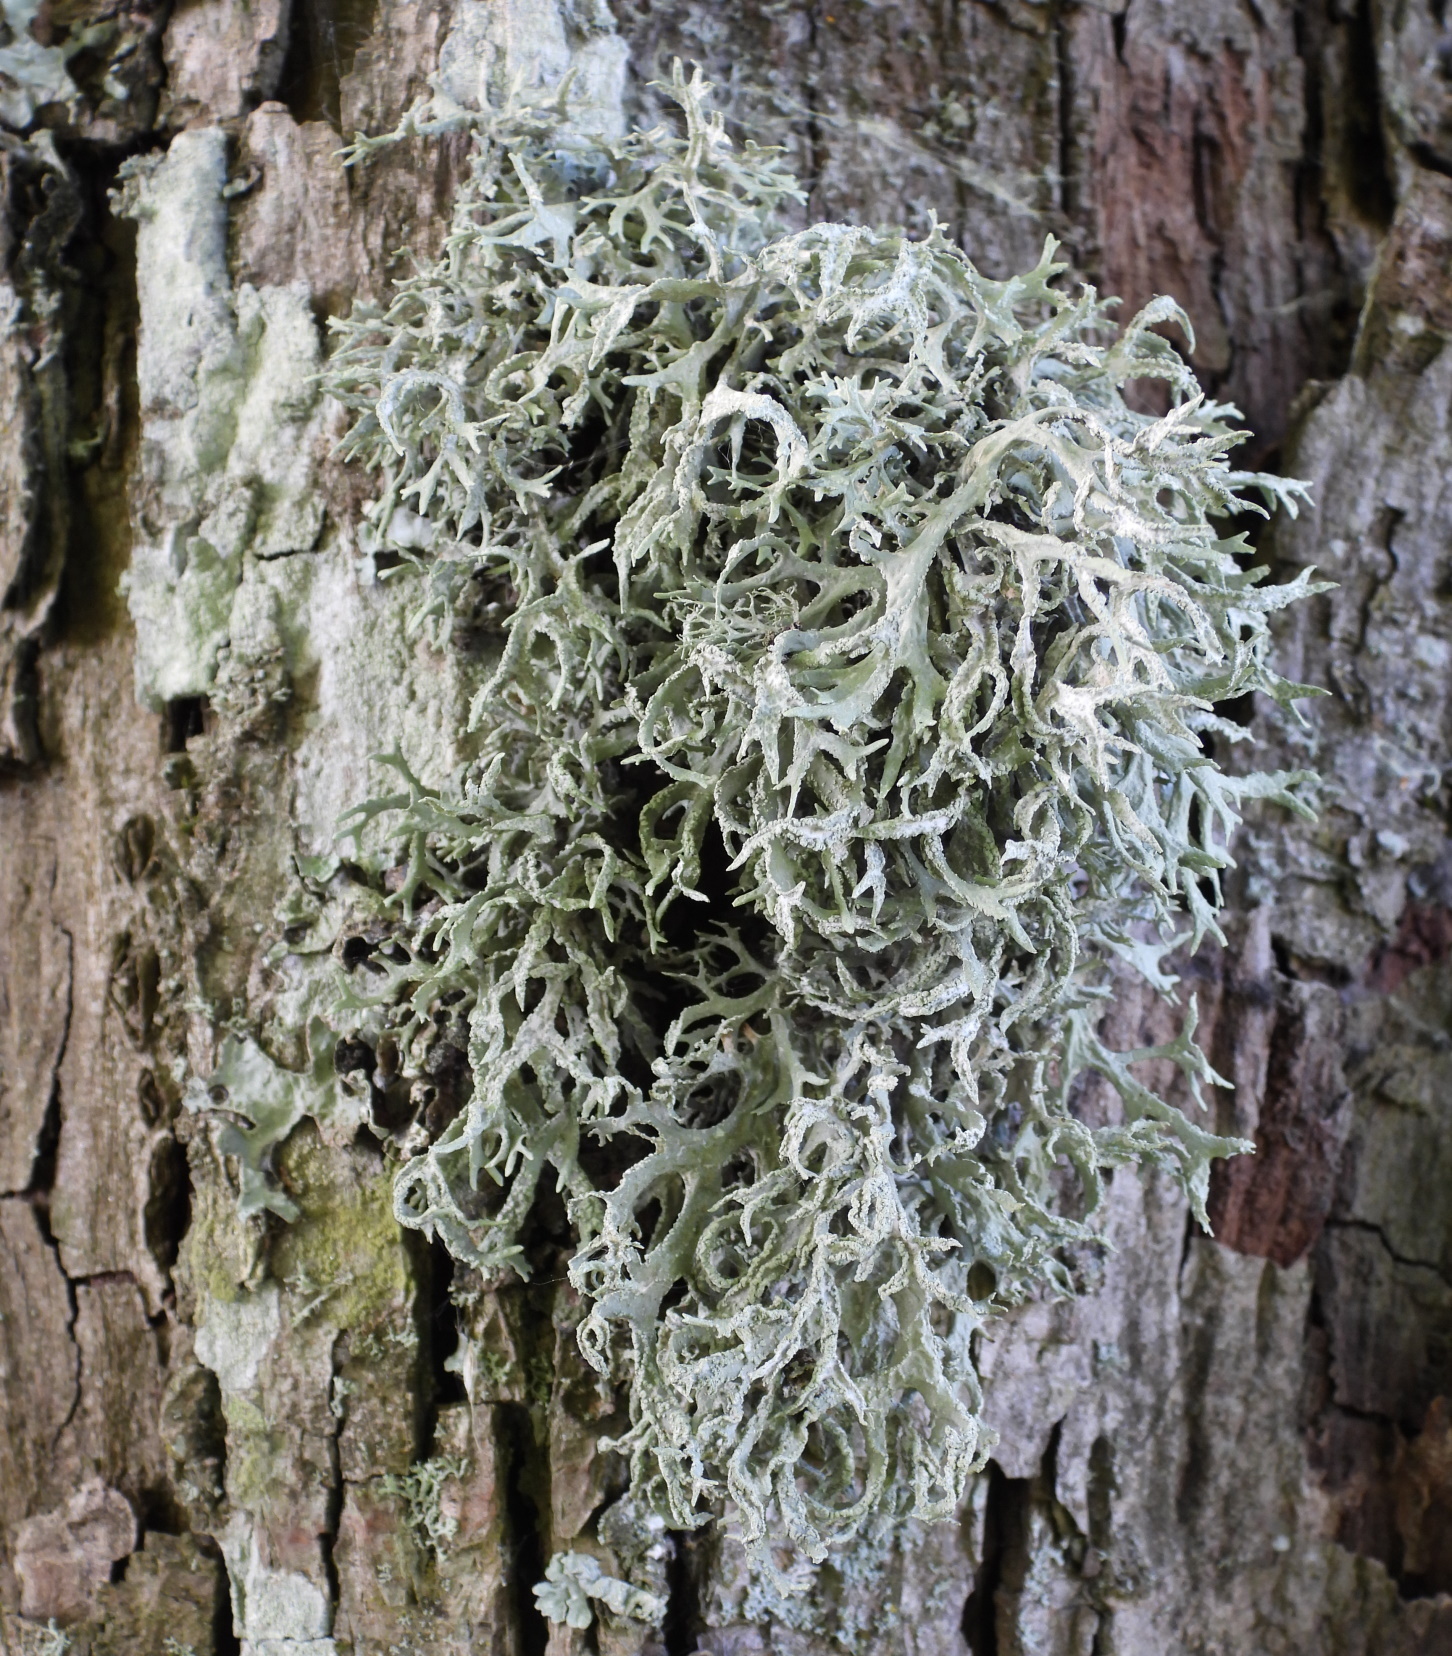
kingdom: Fungi
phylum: Ascomycota
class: Lecanoromycetes
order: Lecanorales
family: Parmeliaceae
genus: Evernia
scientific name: Evernia prunastri
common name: Oak moss
